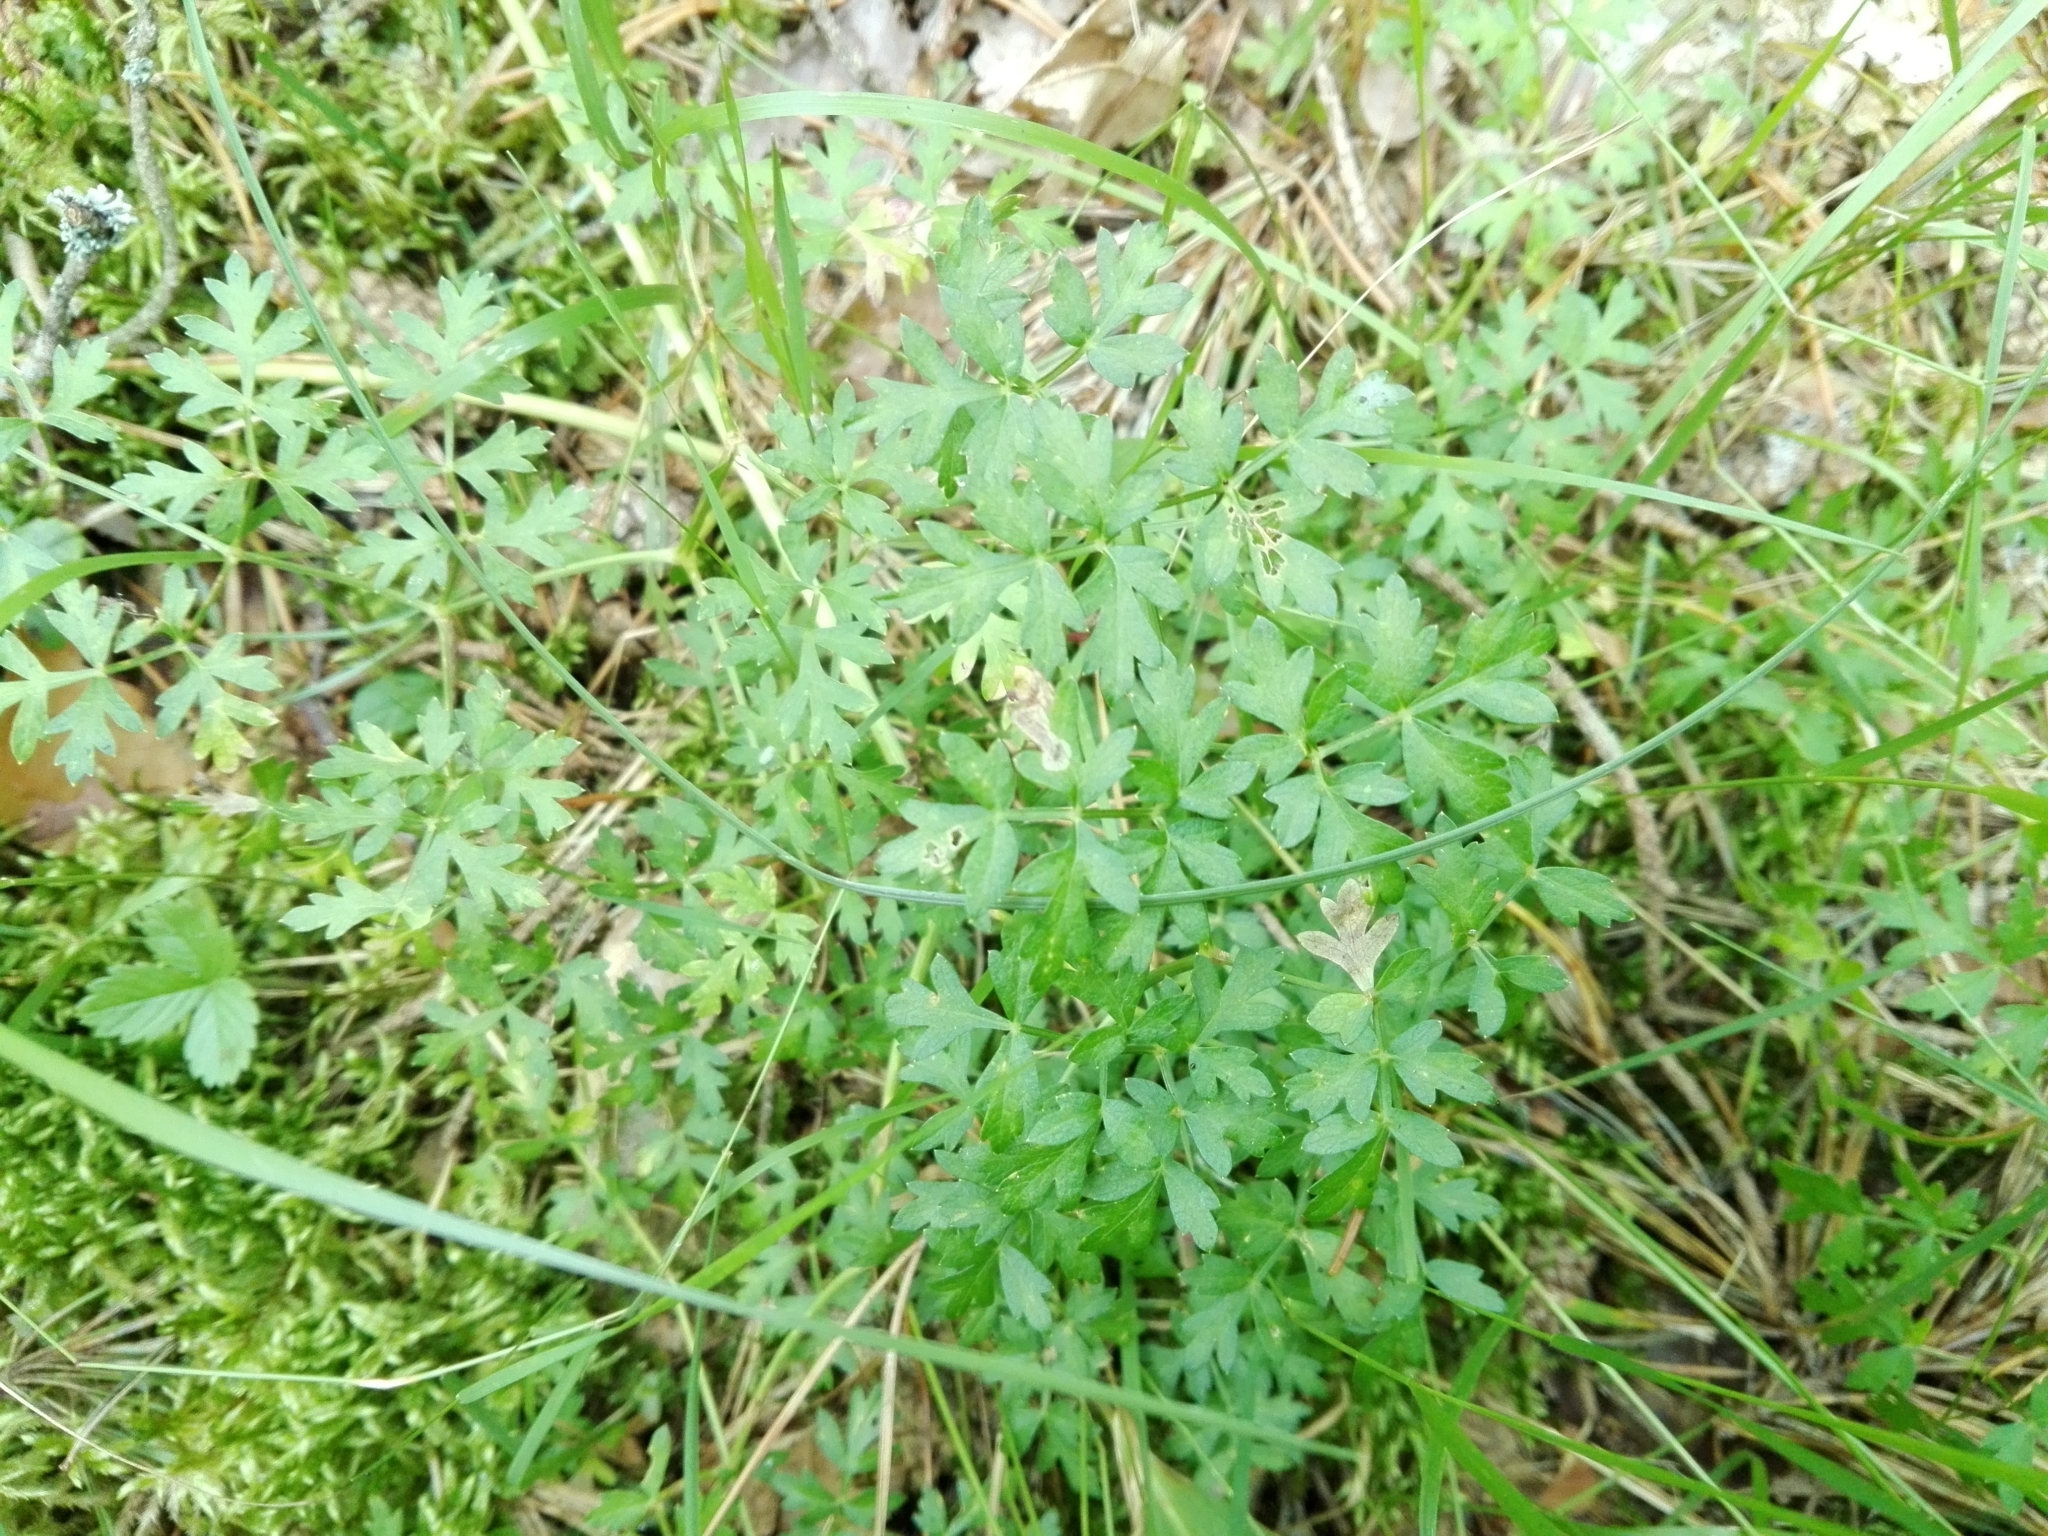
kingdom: Plantae
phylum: Tracheophyta
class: Magnoliopsida
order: Apiales
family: Apiaceae
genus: Oreoselinum
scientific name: Oreoselinum nigrum
